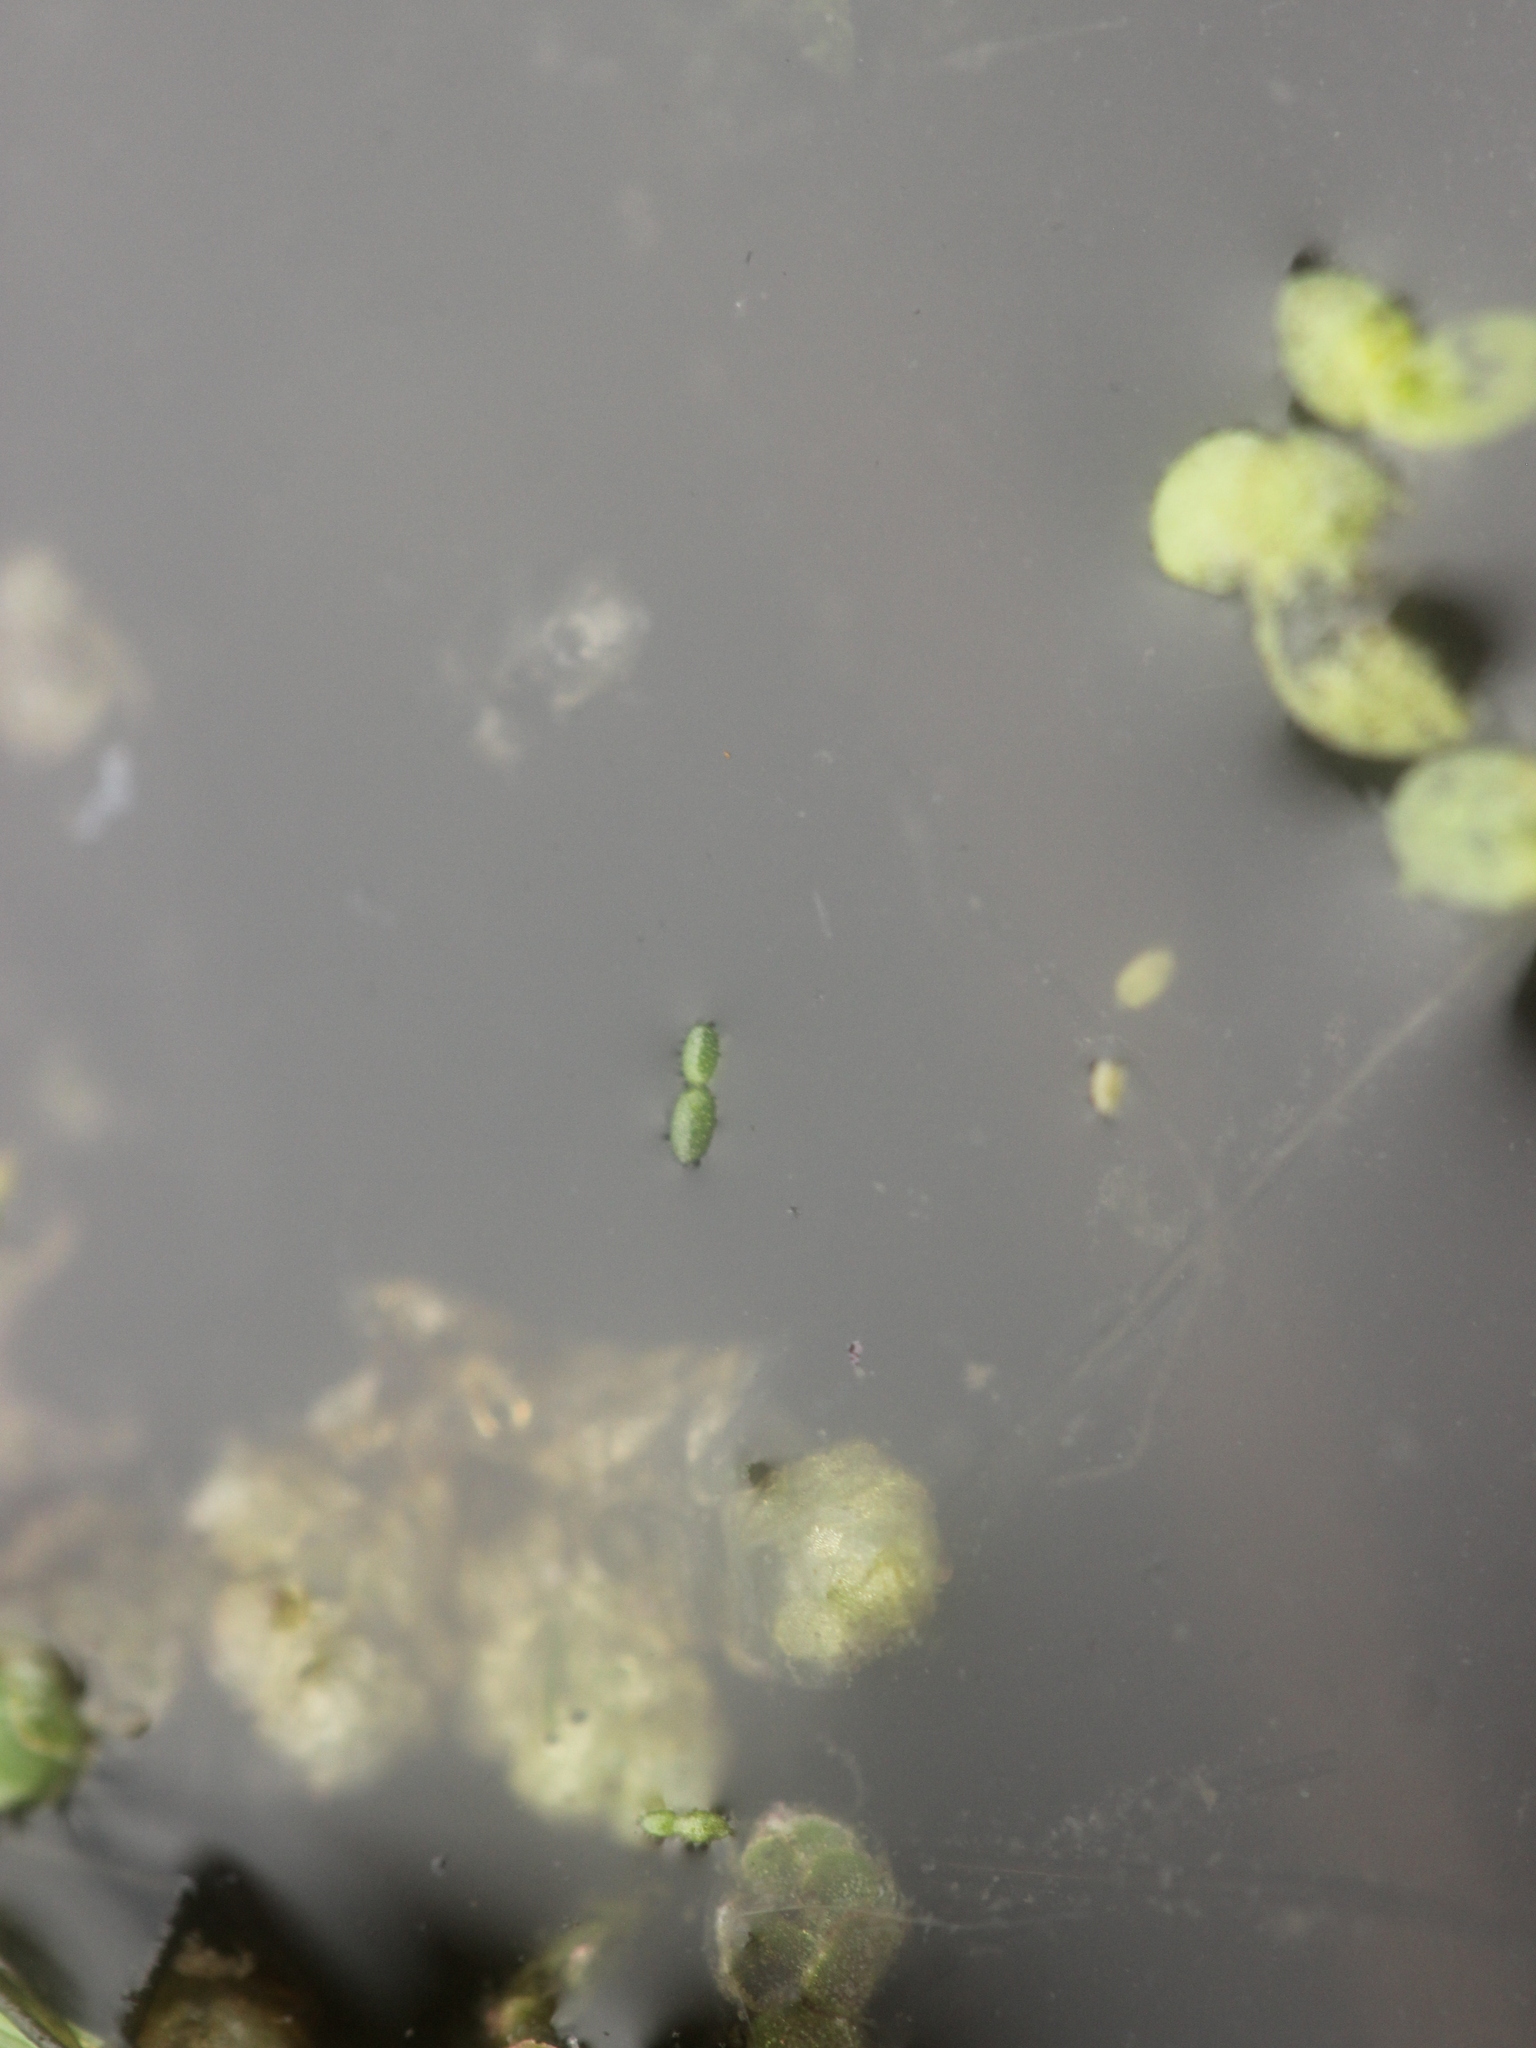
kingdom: Plantae
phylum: Tracheophyta
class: Liliopsida
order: Alismatales
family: Araceae
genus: Wolffia
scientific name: Wolffia australiana
